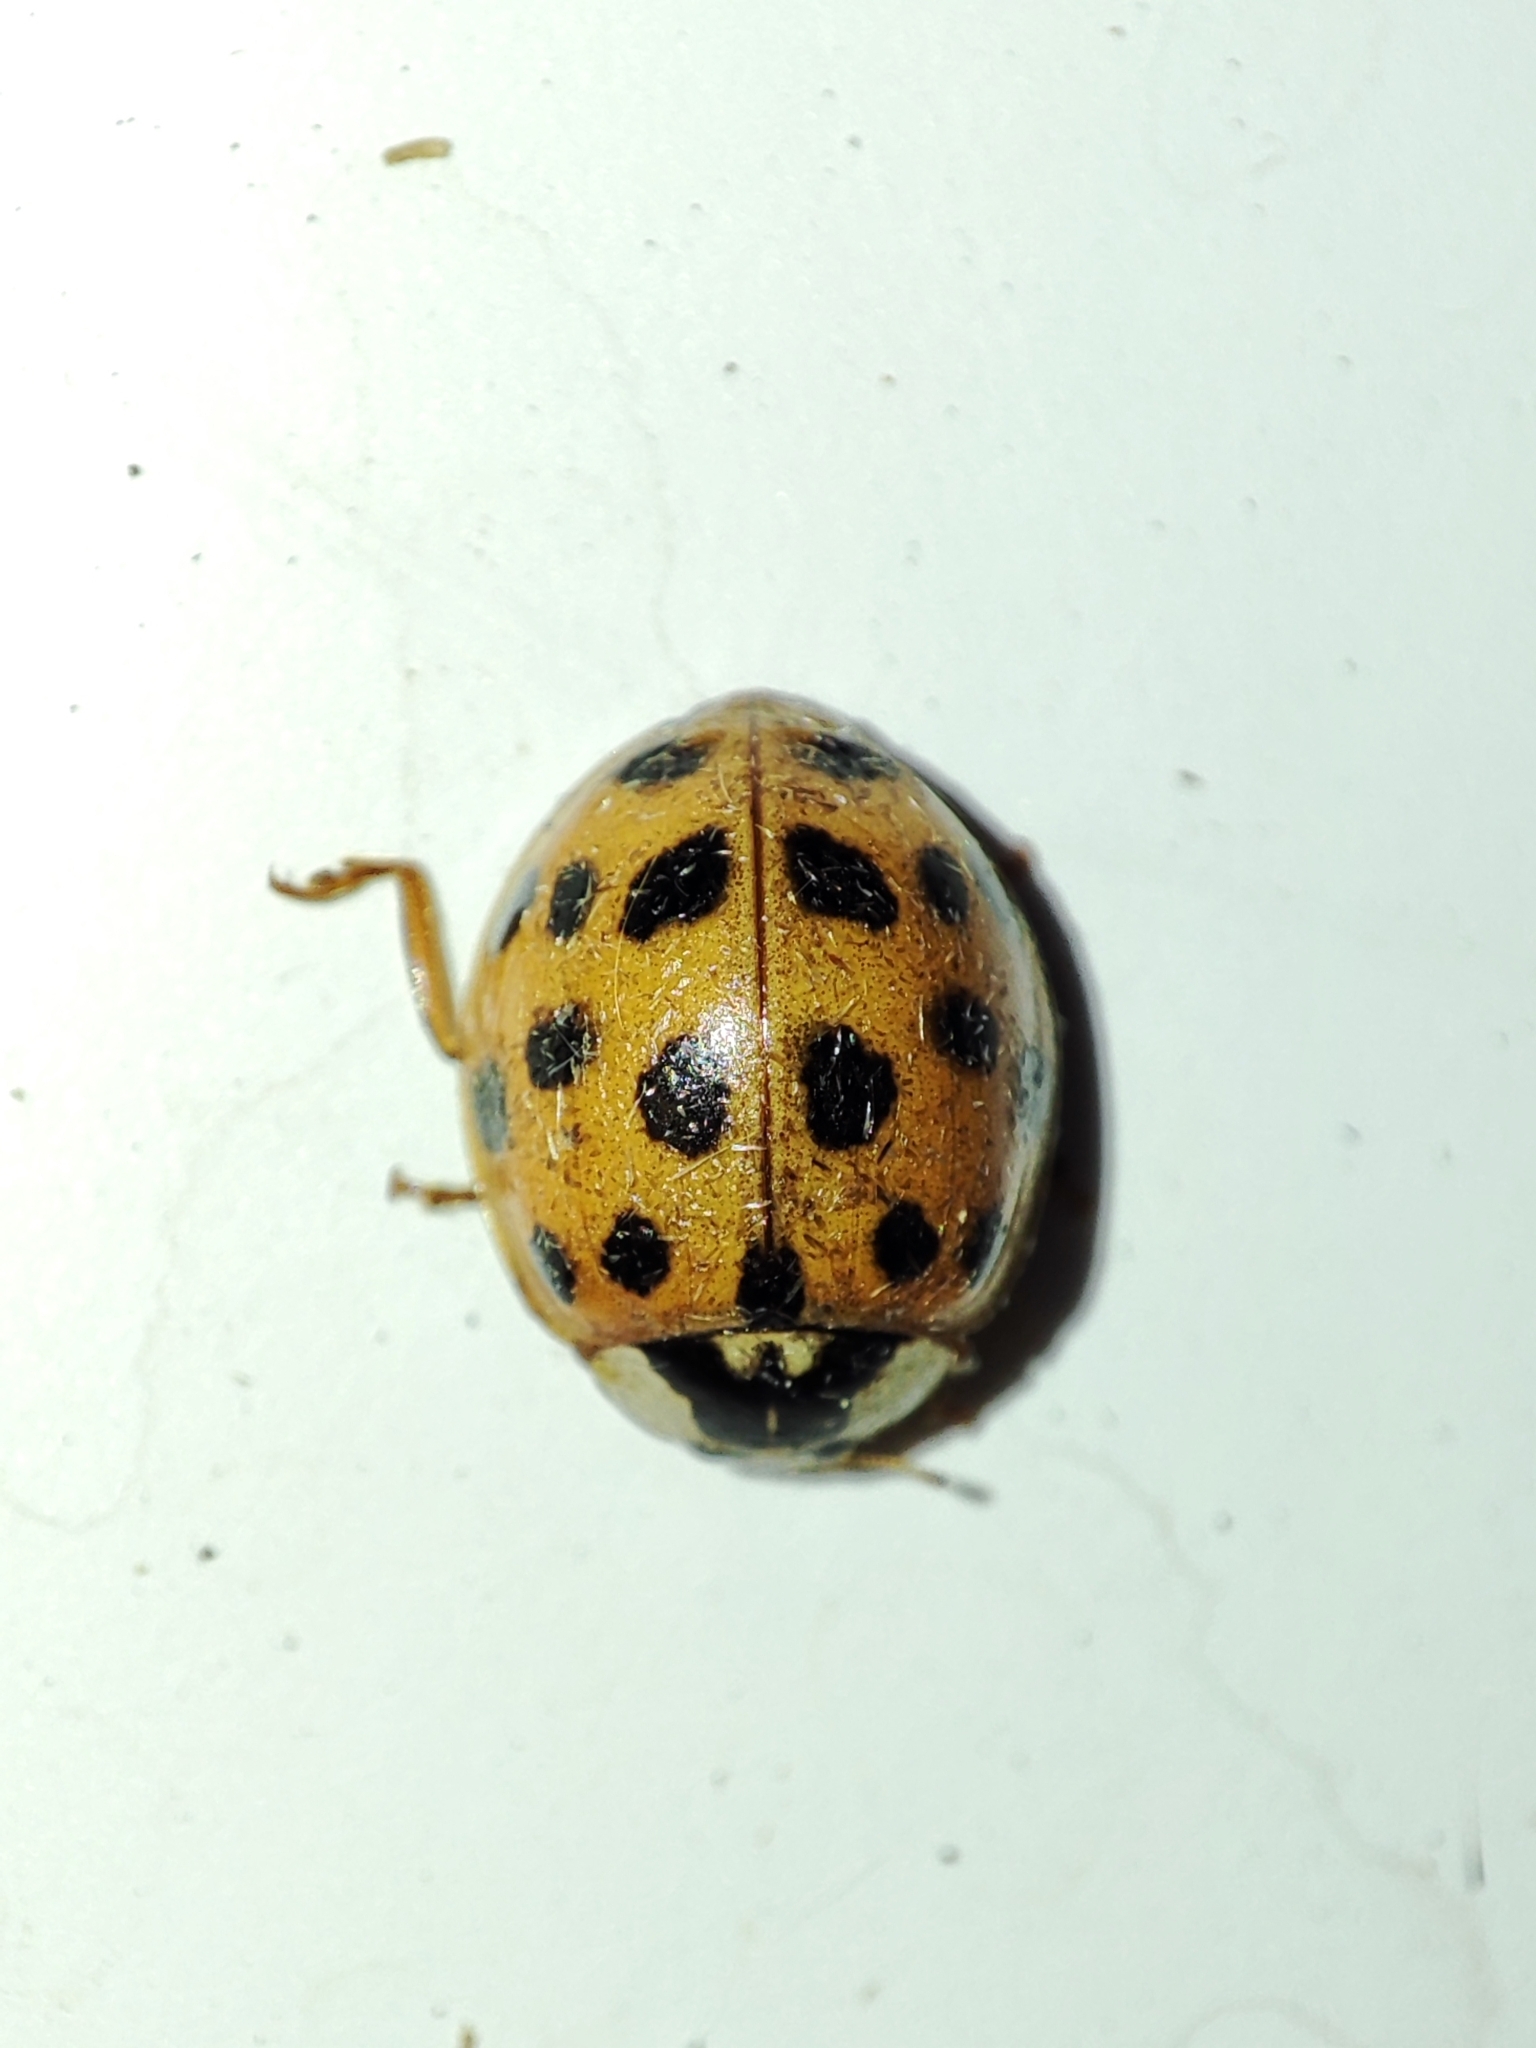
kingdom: Animalia
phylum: Arthropoda
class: Insecta
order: Coleoptera
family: Coccinellidae
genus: Harmonia
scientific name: Harmonia axyridis
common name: Harlequin ladybird
